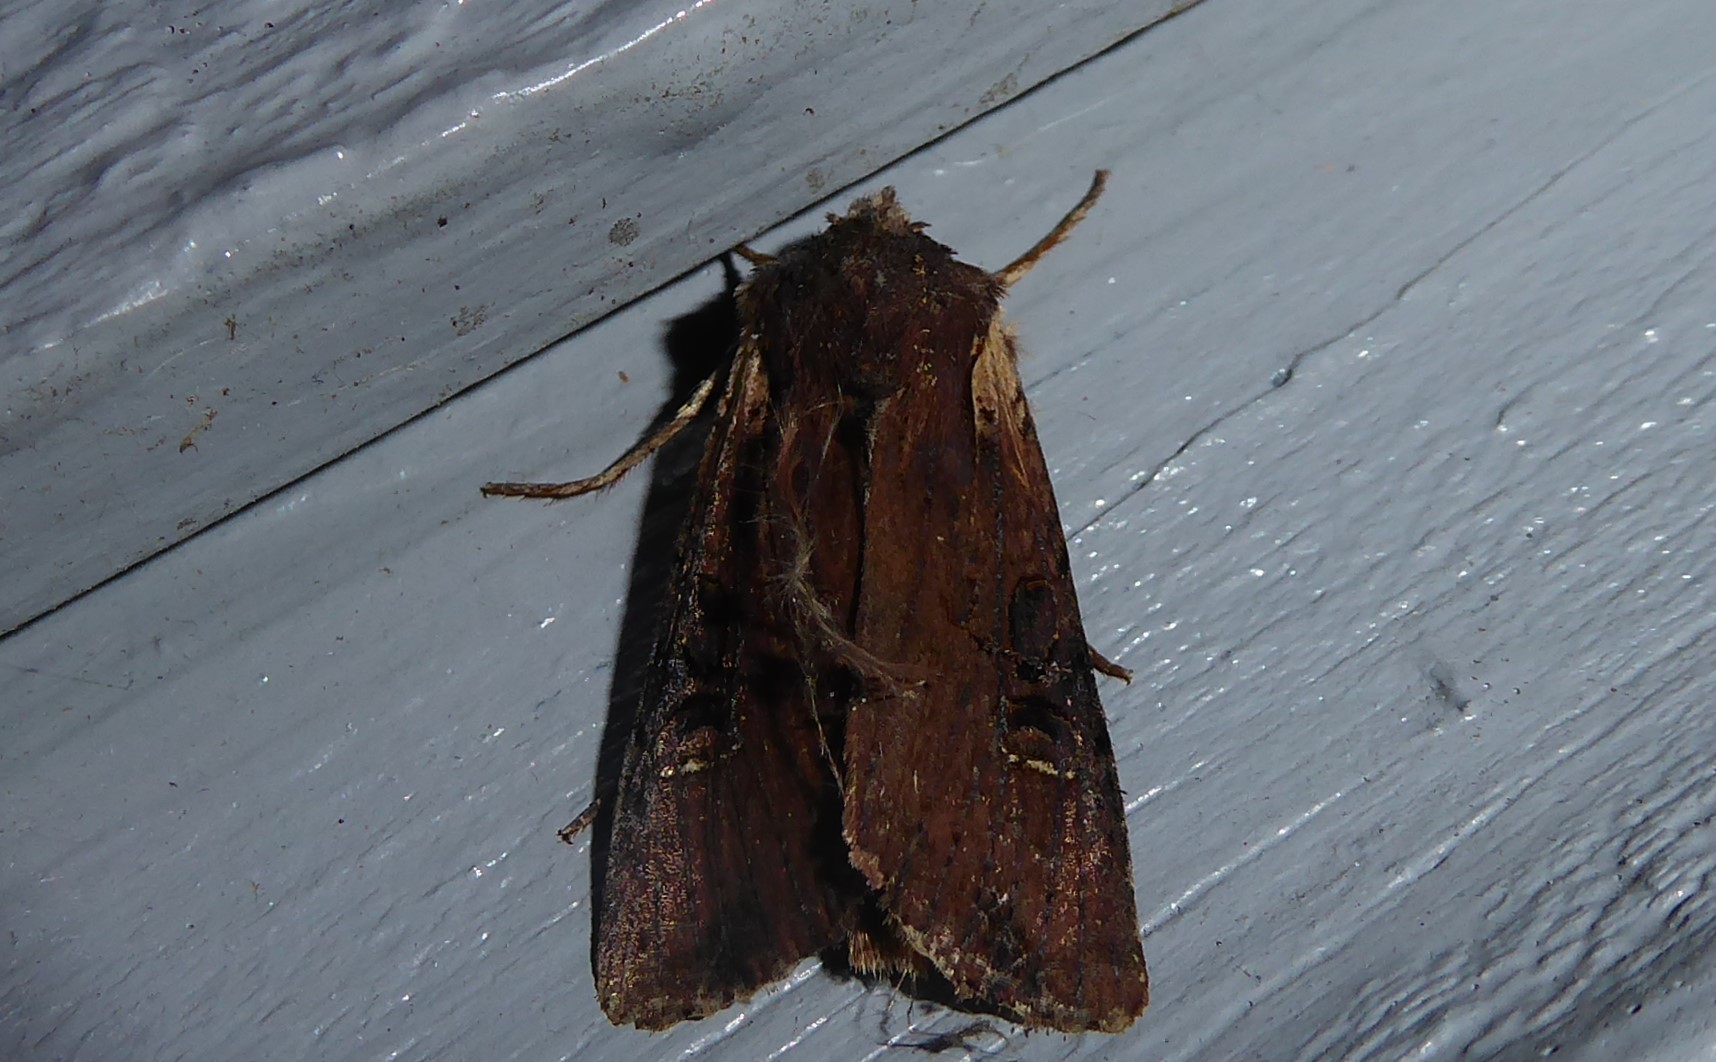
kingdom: Animalia
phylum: Arthropoda
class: Insecta
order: Lepidoptera
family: Noctuidae
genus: Ichneutica
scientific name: Ichneutica omoplaca
